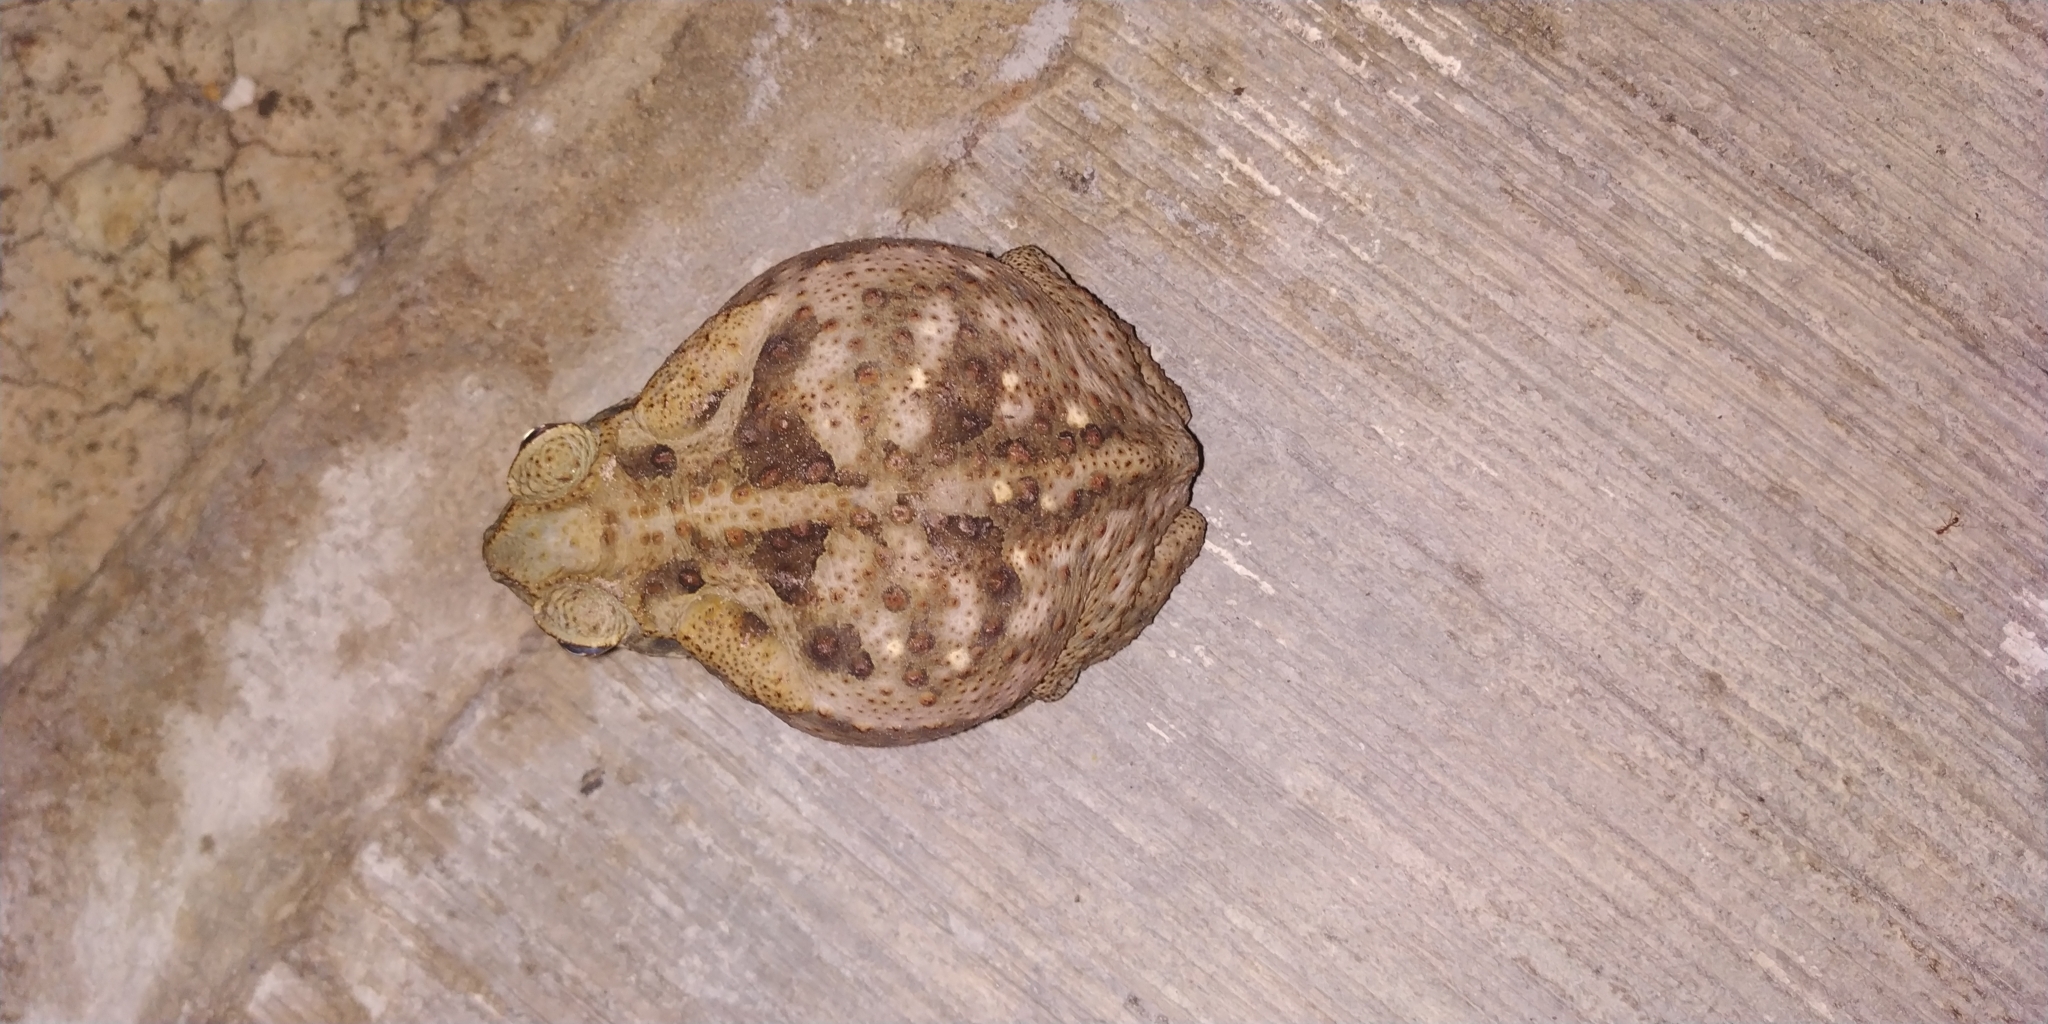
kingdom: Animalia
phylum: Chordata
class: Amphibia
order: Anura
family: Bufonidae
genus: Rhinella
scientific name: Rhinella horribilis
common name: Mesoamerican cane toad
